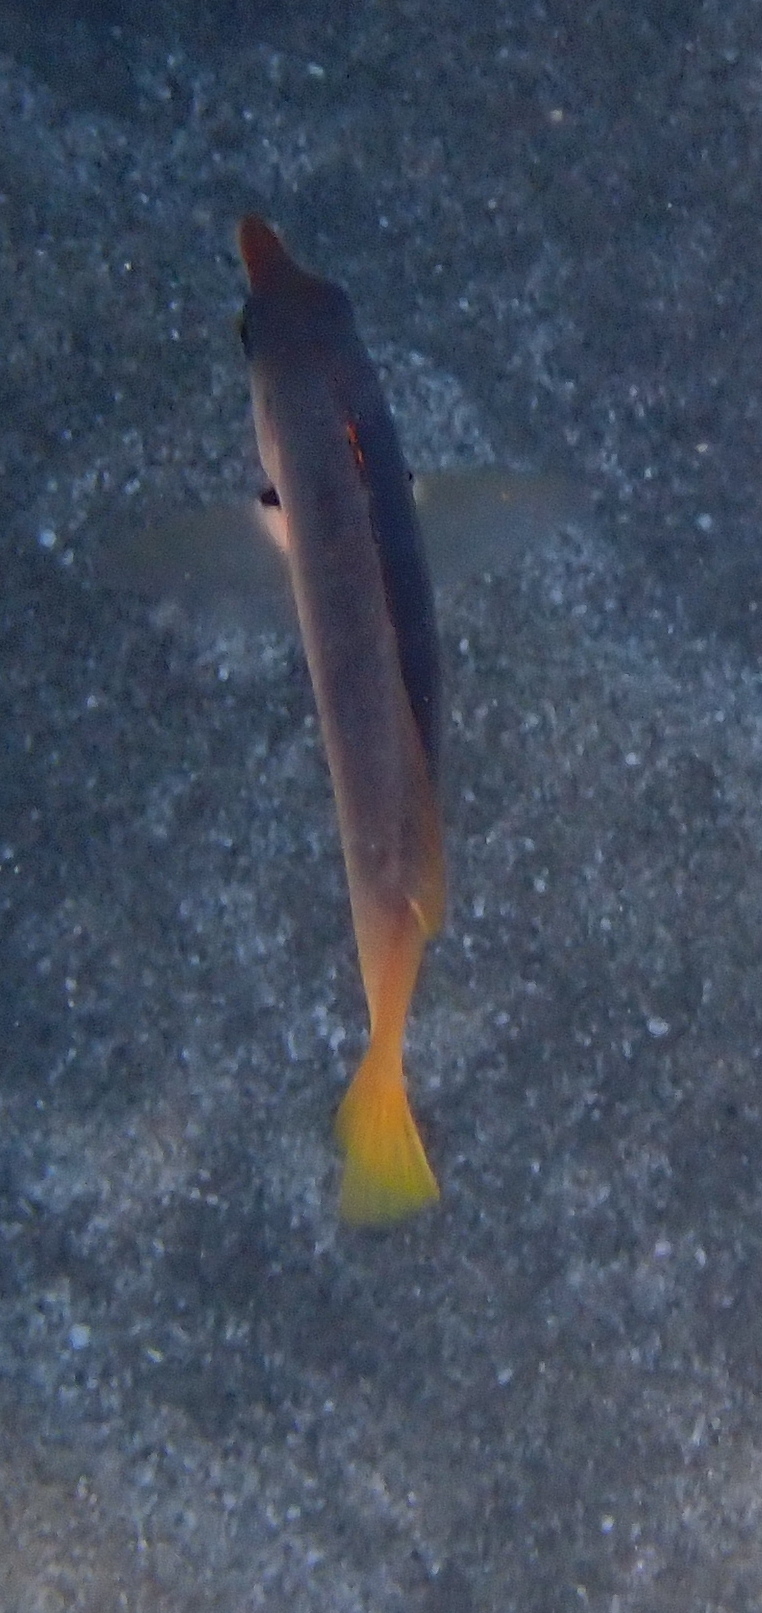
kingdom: Animalia
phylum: Chordata
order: Perciformes
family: Labridae
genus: Gomphosus
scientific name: Gomphosus klunzingeri
